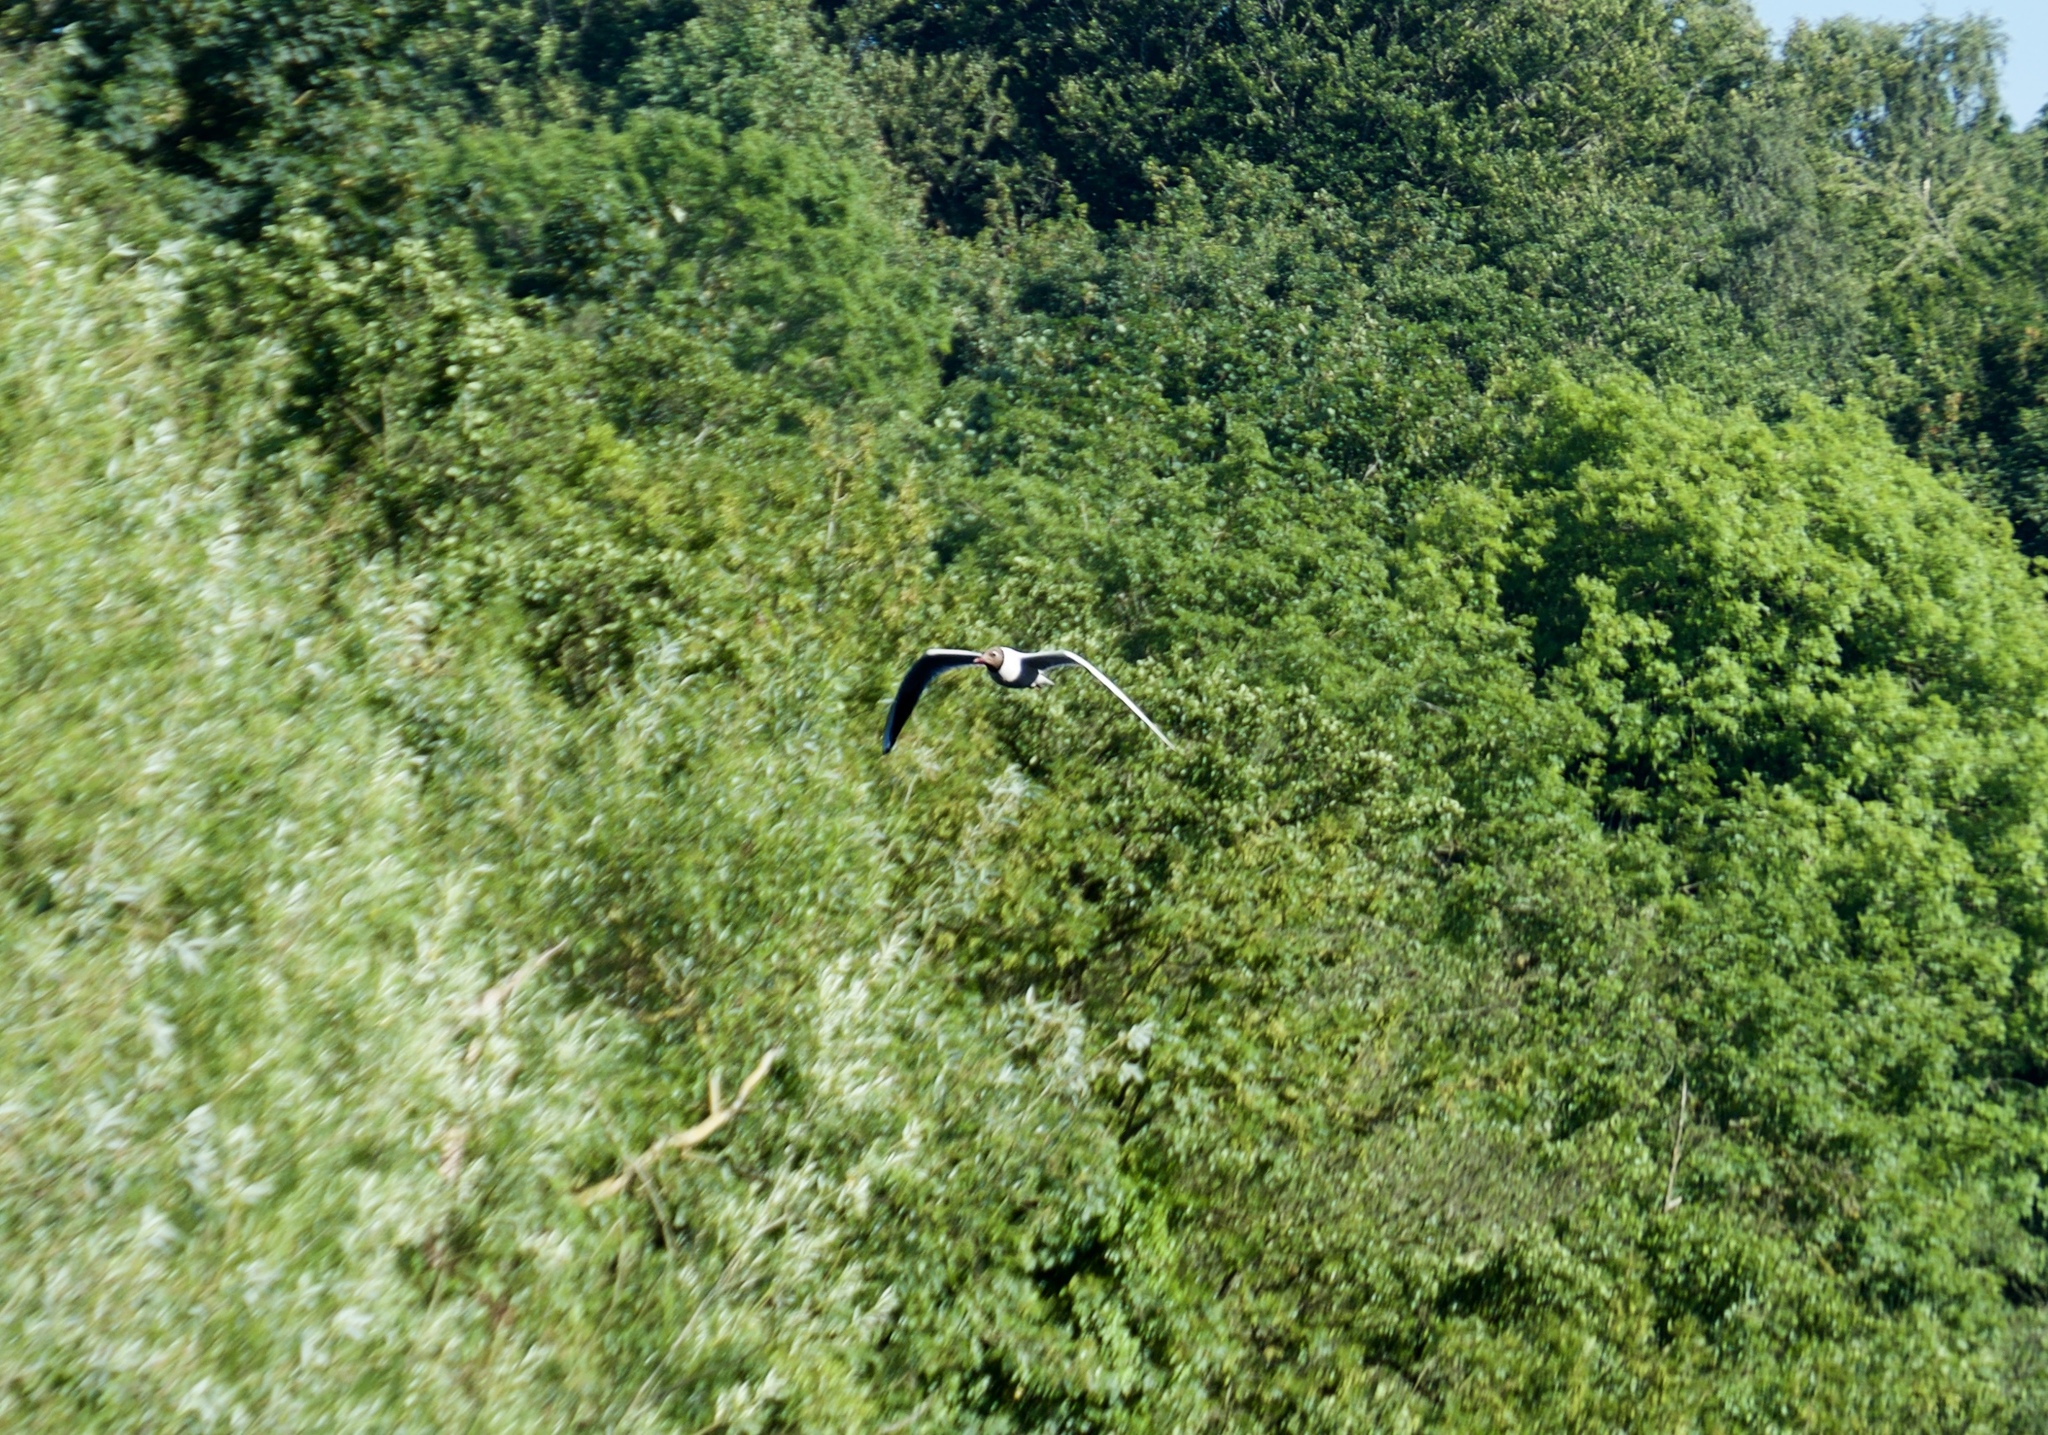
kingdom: Animalia
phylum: Chordata
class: Aves
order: Charadriiformes
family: Laridae
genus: Chroicocephalus
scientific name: Chroicocephalus ridibundus
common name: Black-headed gull
